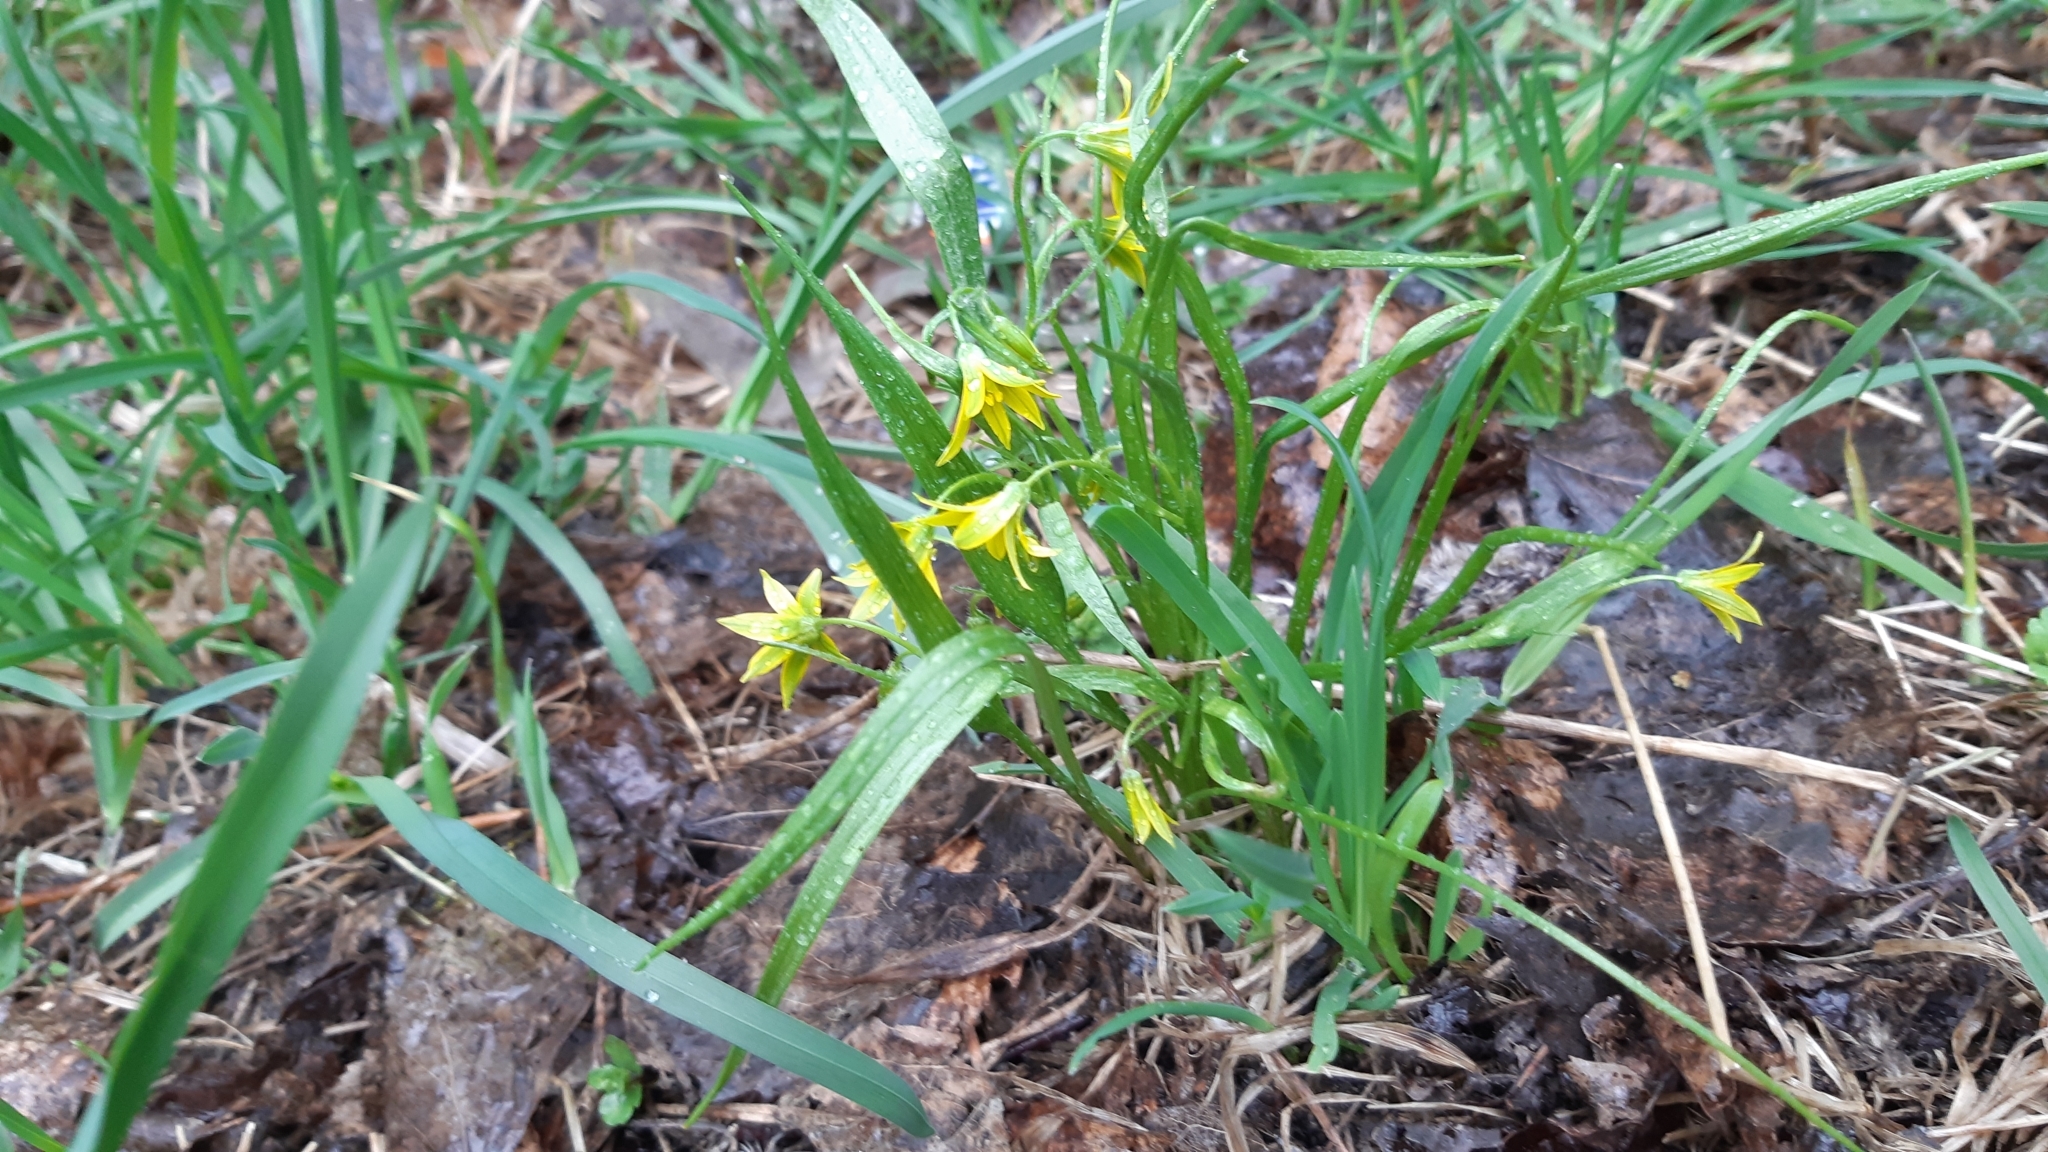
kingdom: Plantae
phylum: Tracheophyta
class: Liliopsida
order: Liliales
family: Liliaceae
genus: Gagea
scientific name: Gagea minima
